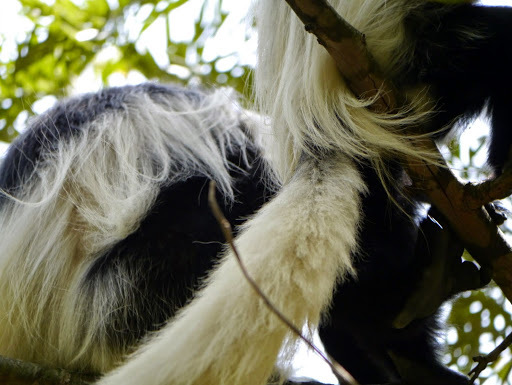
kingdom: Animalia
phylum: Chordata
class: Mammalia
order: Primates
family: Cercopithecidae
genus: Colobus
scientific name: Colobus guereza
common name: Mantled guereza
